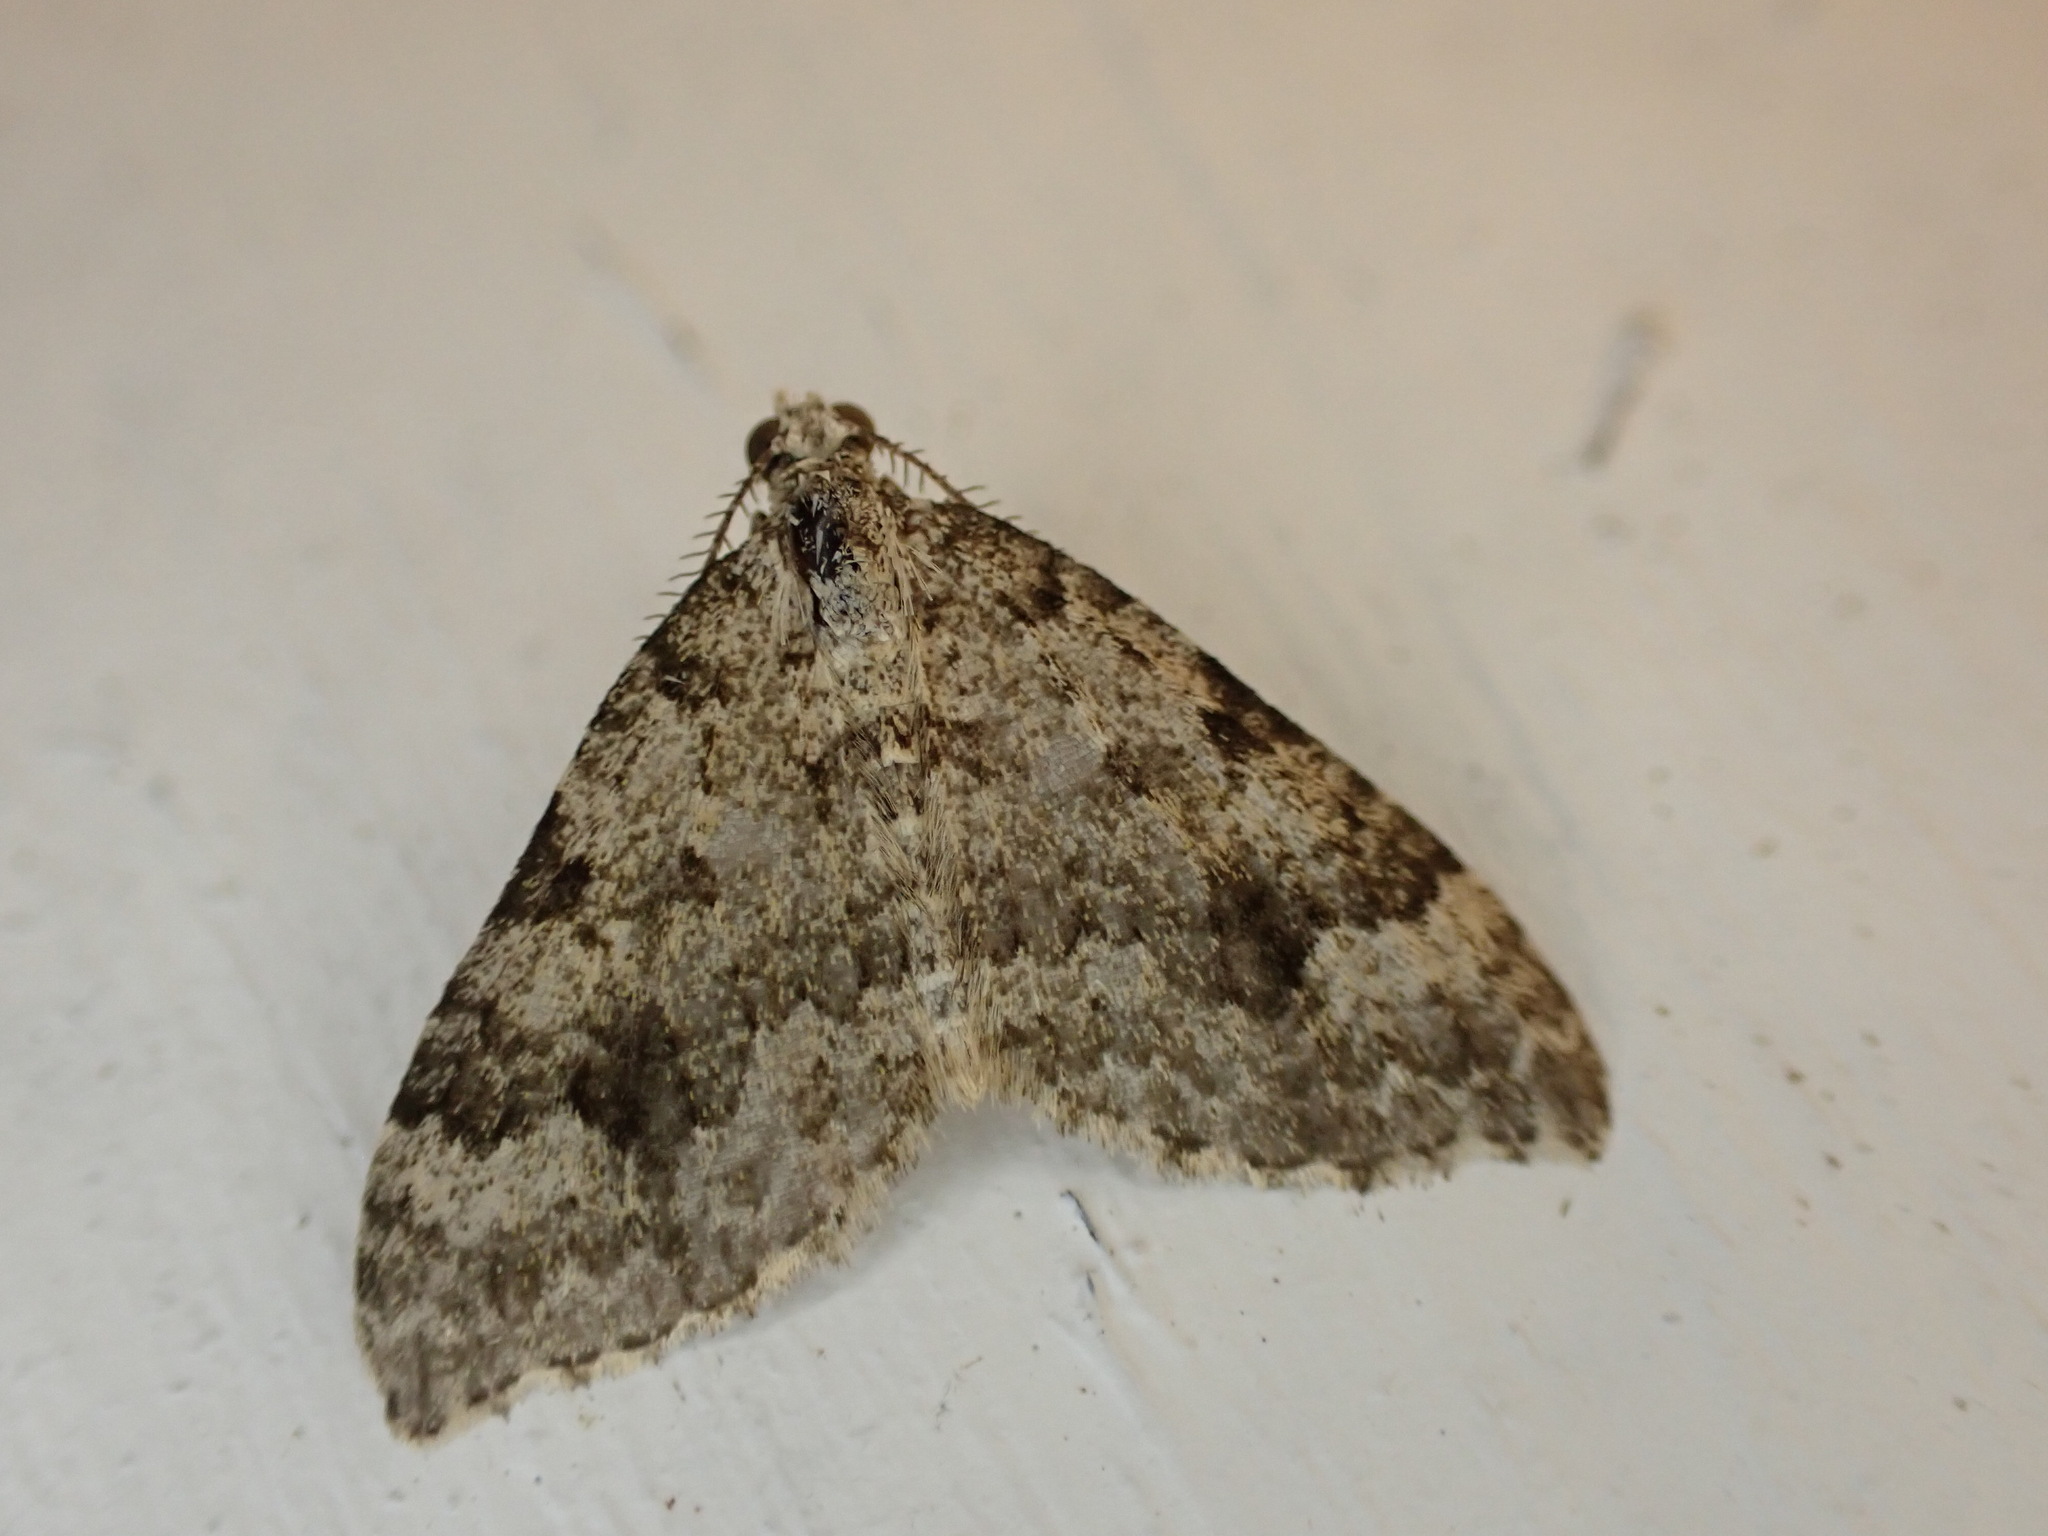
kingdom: Animalia
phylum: Arthropoda
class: Insecta
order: Lepidoptera
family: Geometridae
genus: Helastia
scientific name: Helastia cinerearia
